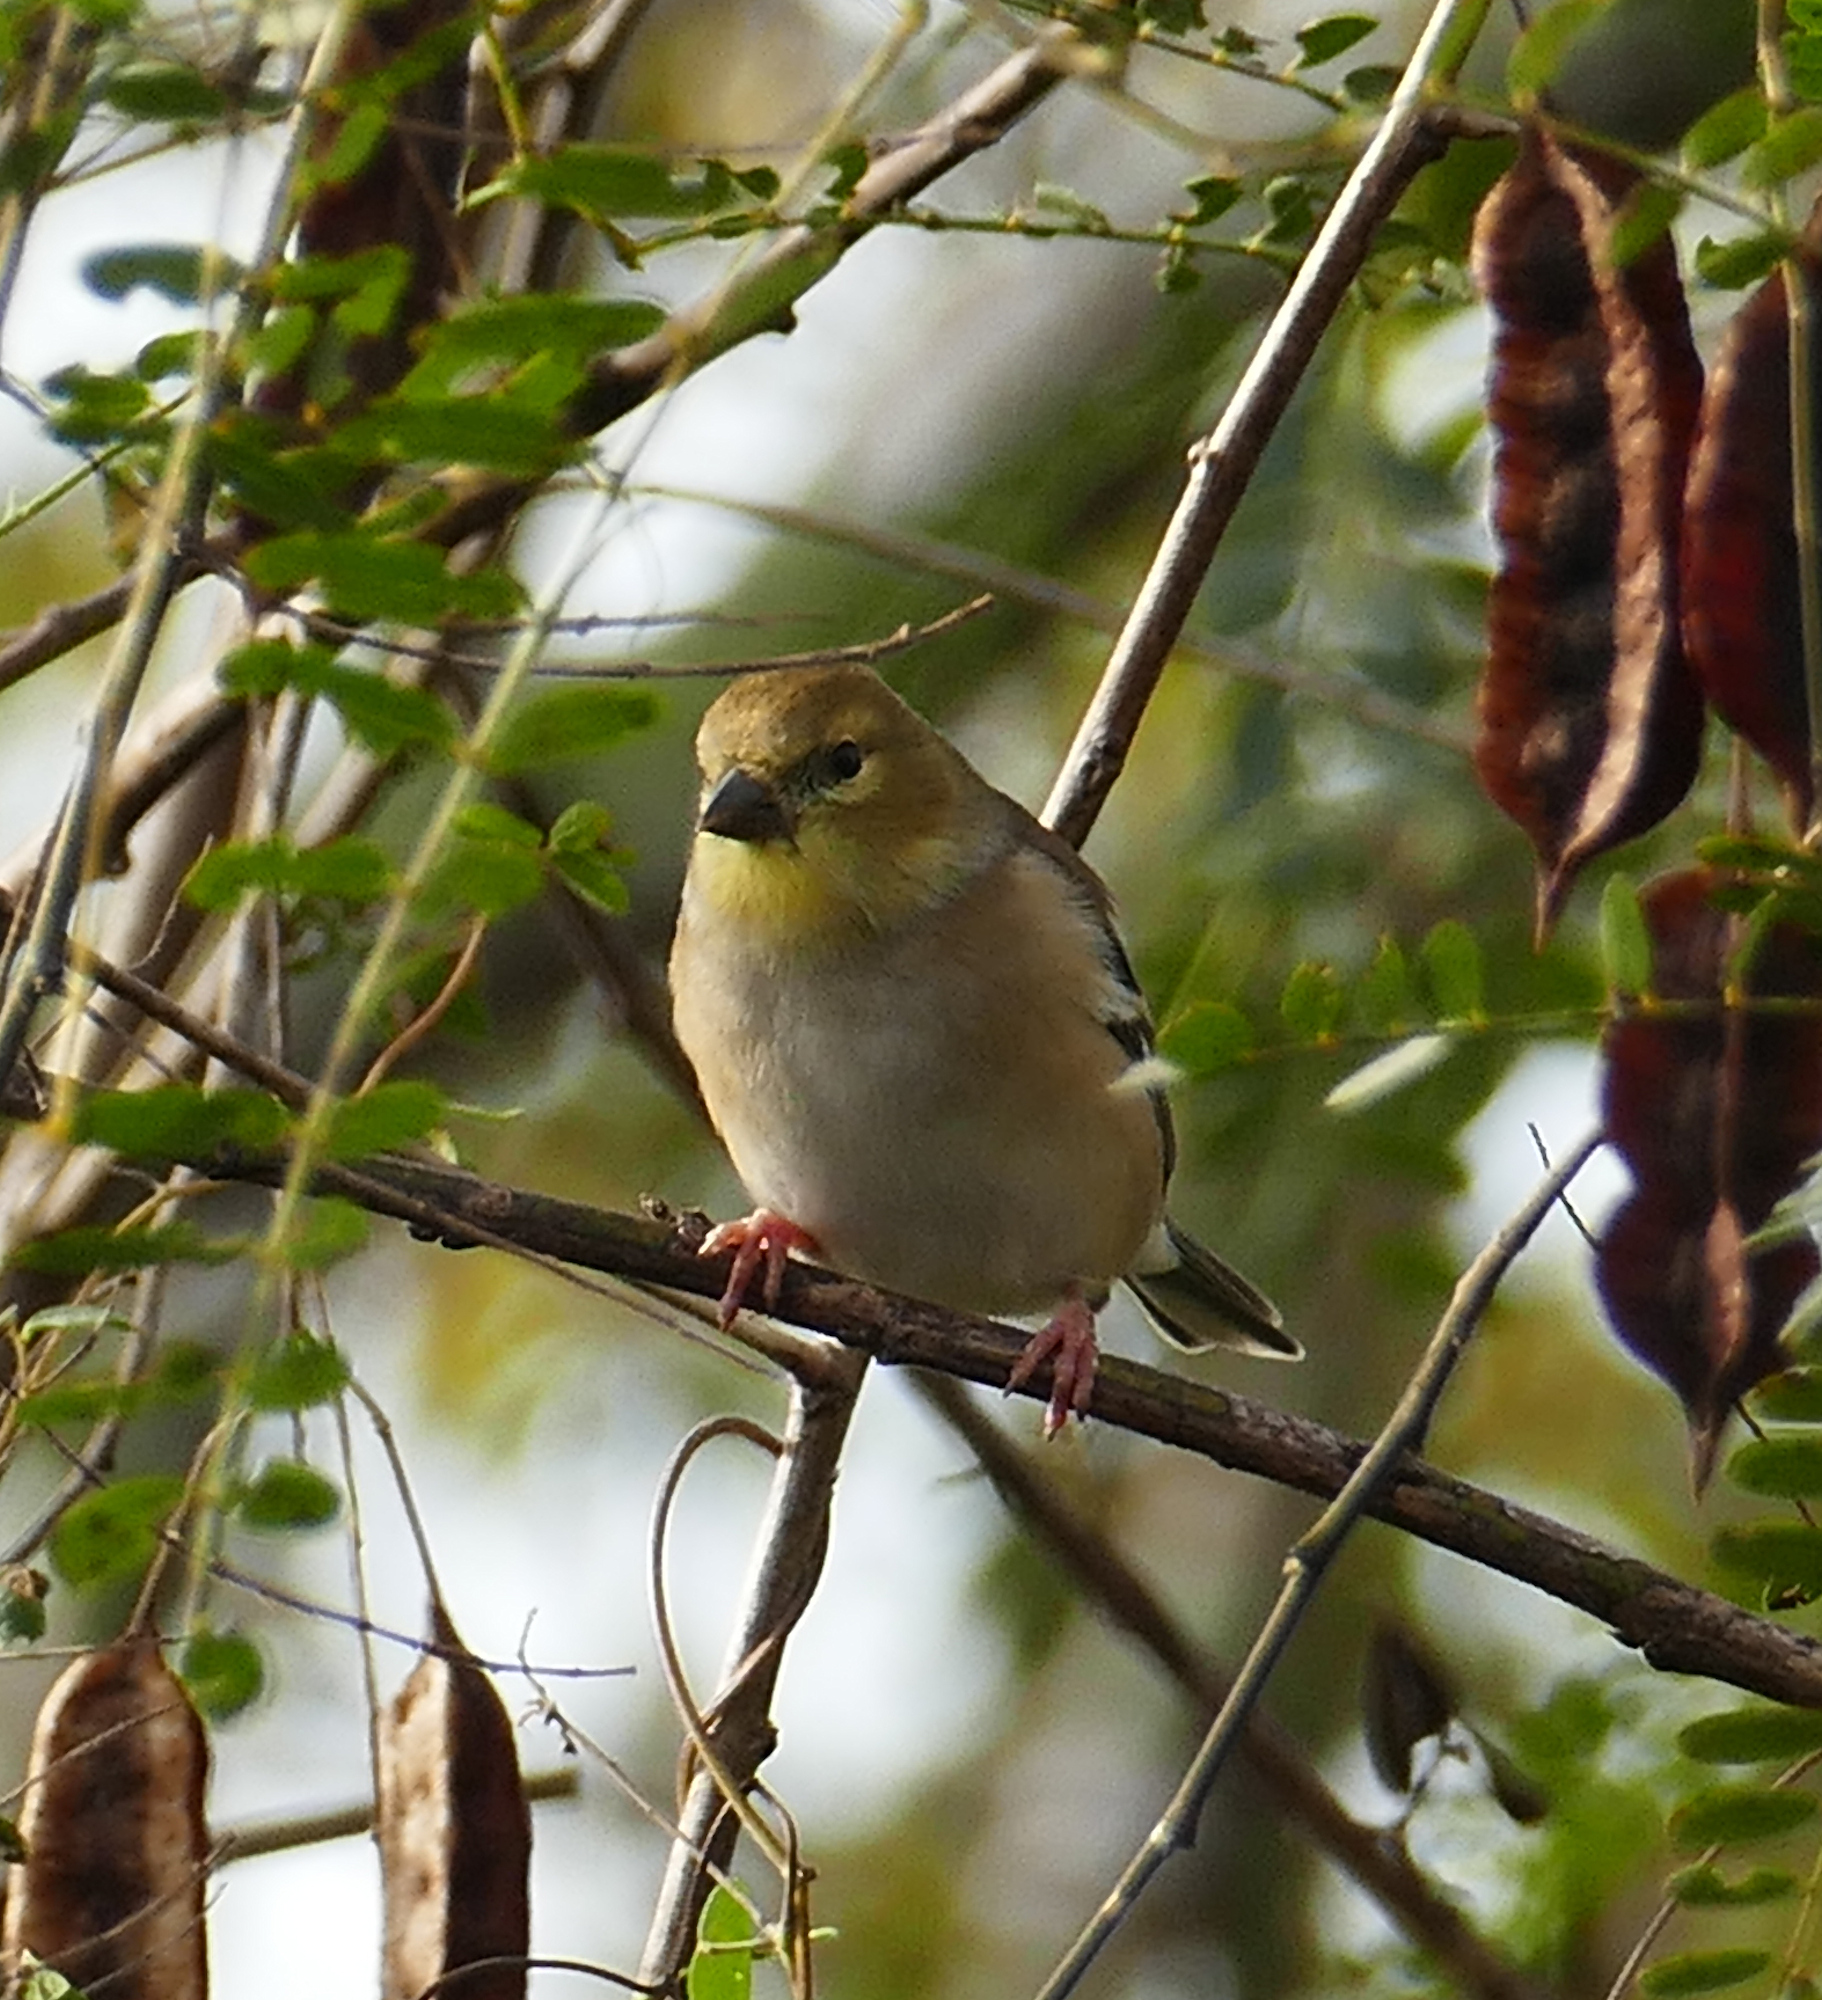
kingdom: Animalia
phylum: Chordata
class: Aves
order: Passeriformes
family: Fringillidae
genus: Spinus
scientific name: Spinus tristis
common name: American goldfinch
